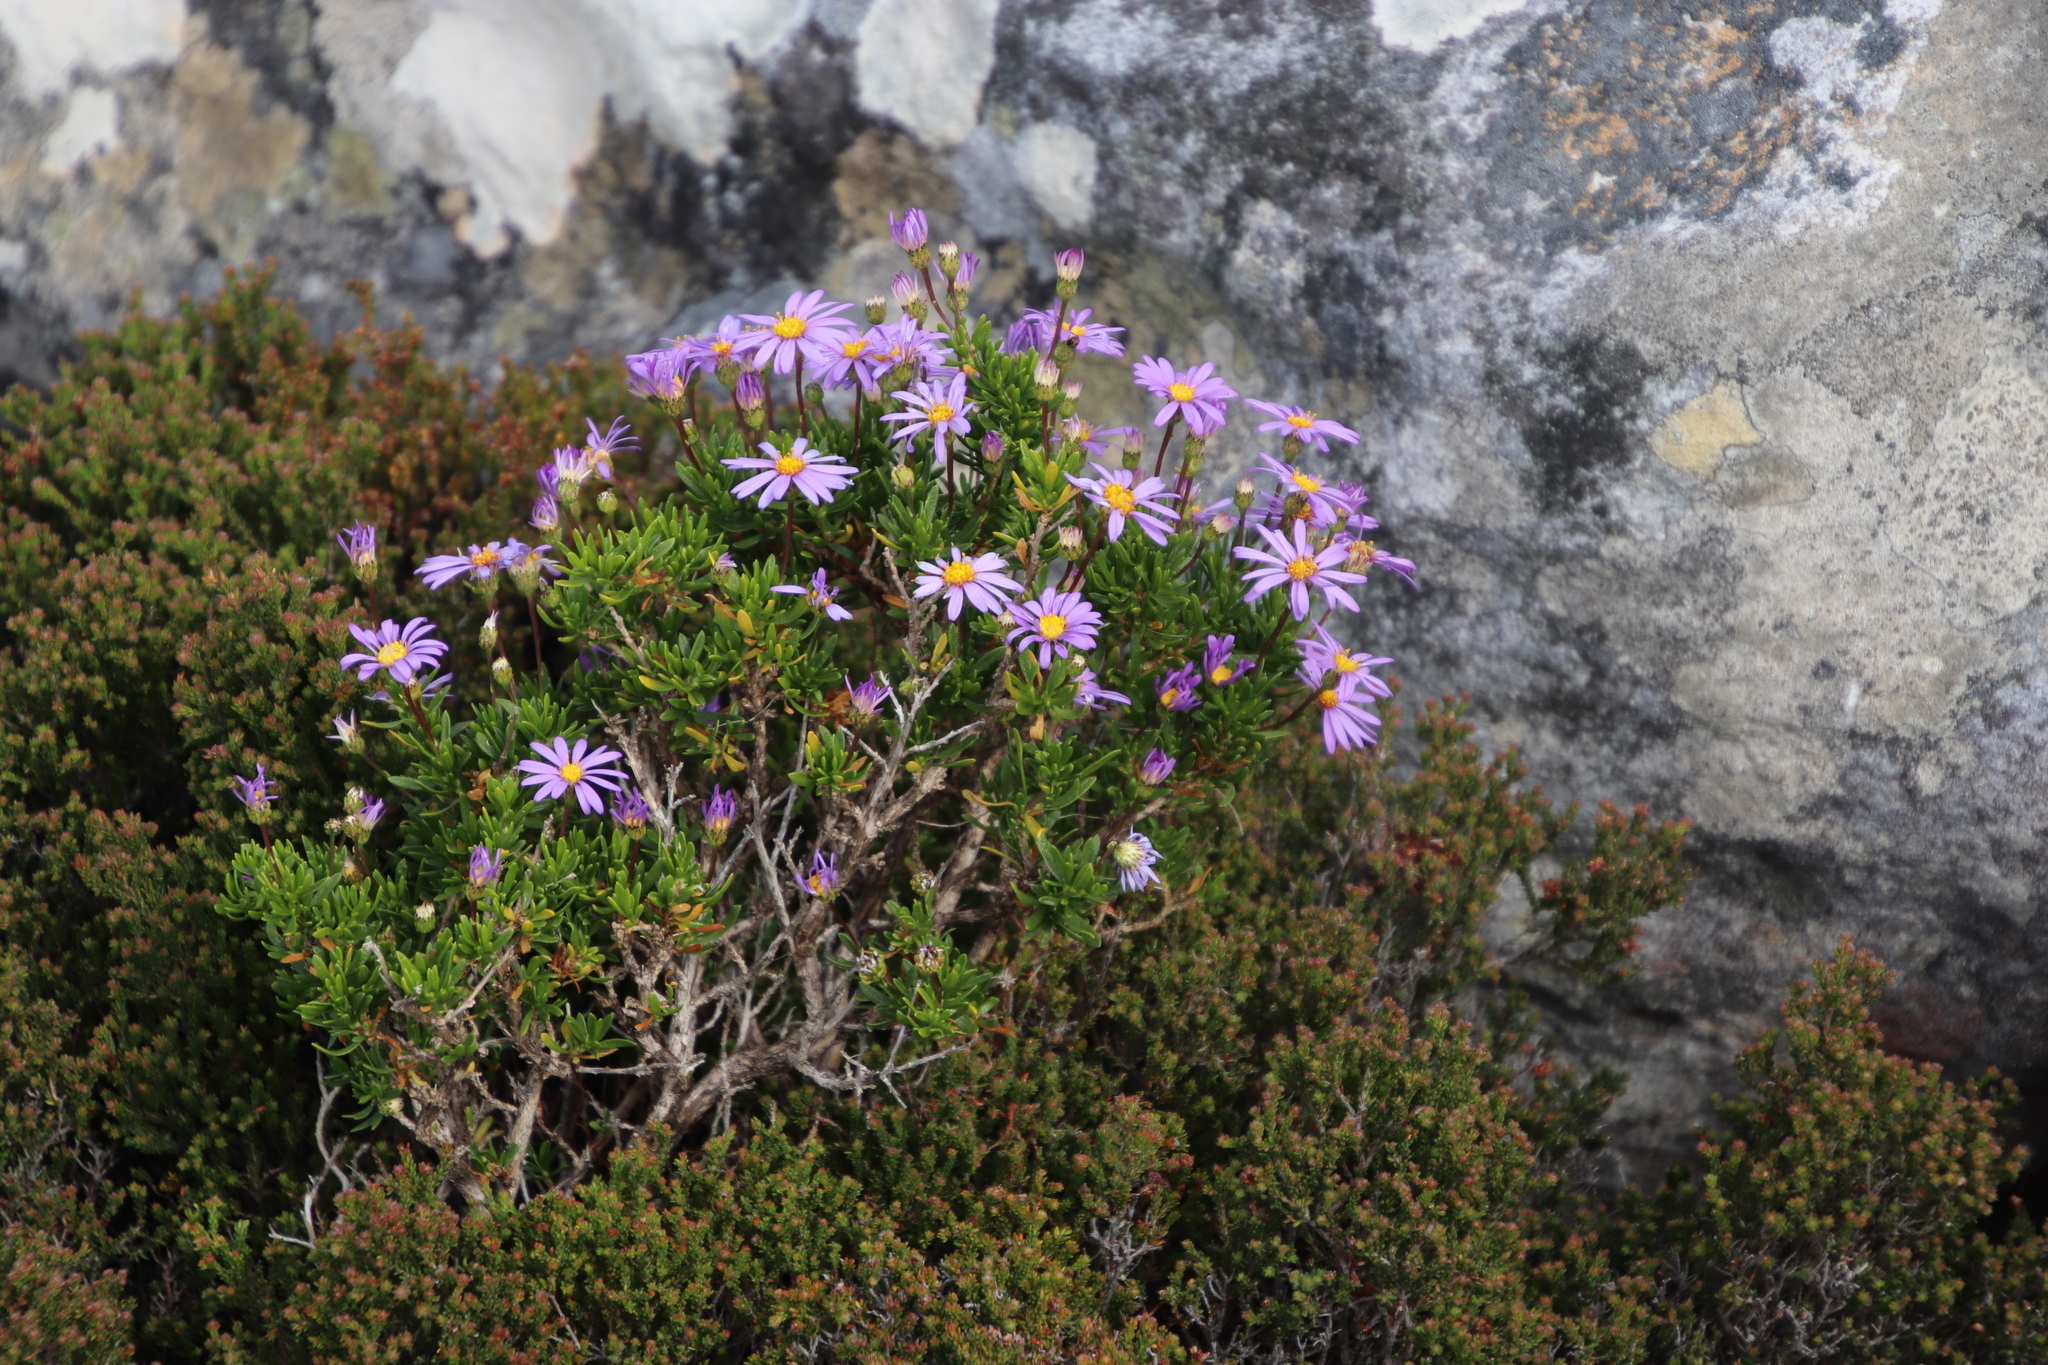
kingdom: Plantae
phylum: Tracheophyta
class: Magnoliopsida
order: Asterales
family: Asteraceae
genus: Felicia
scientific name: Felicia fruticosa
